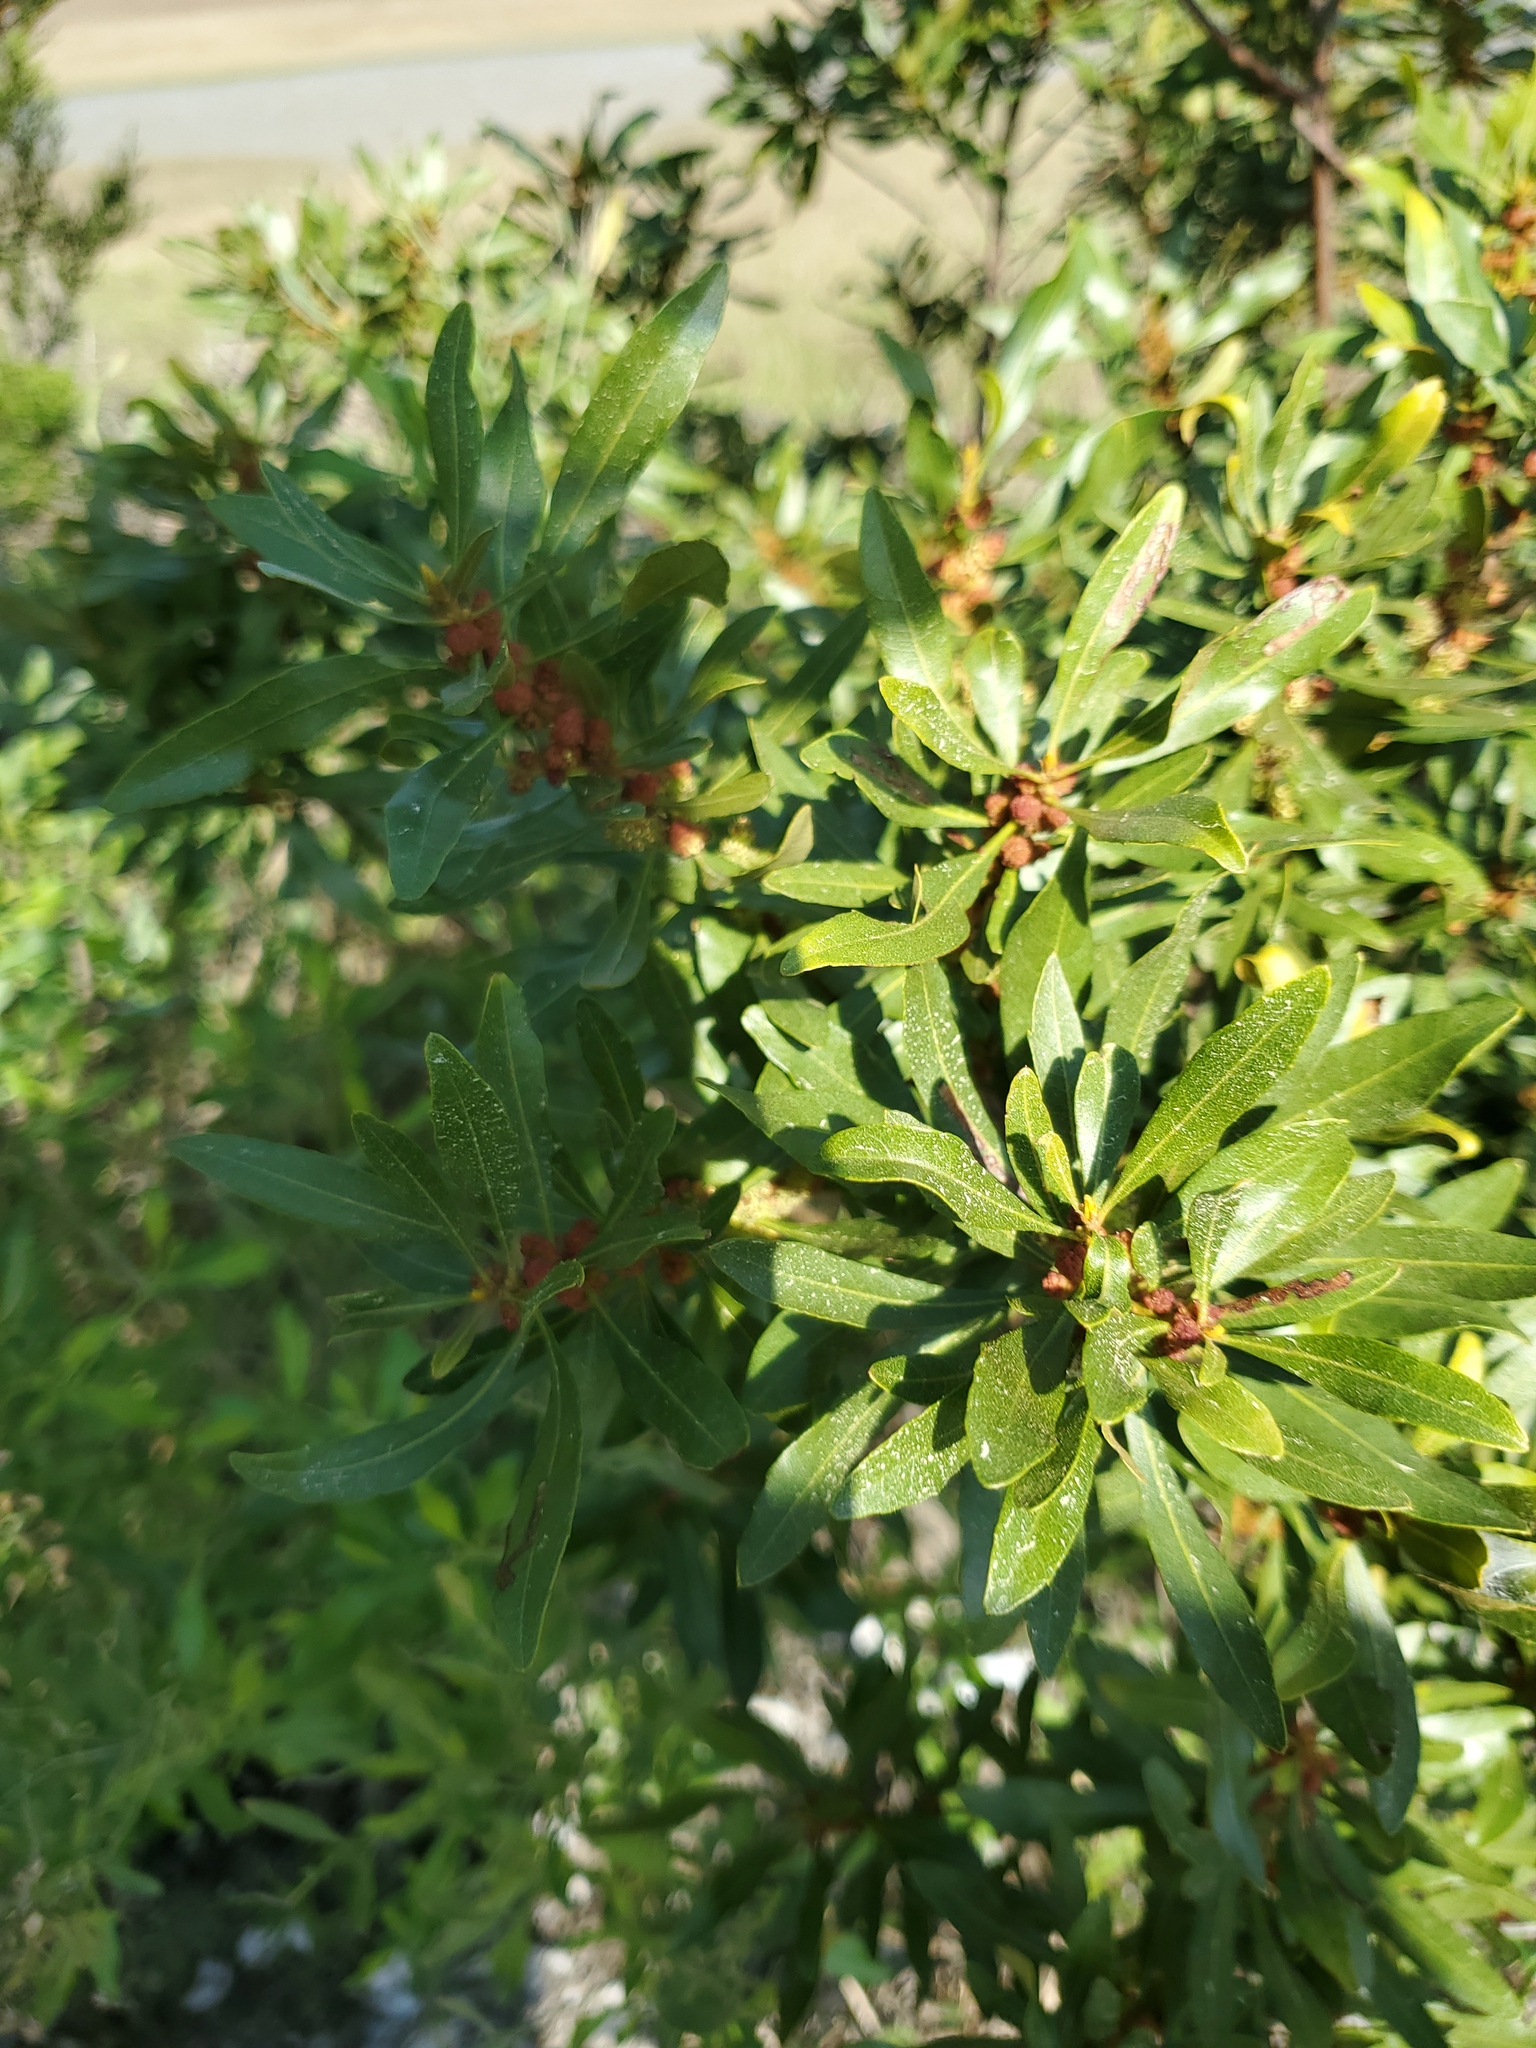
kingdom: Plantae
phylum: Tracheophyta
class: Magnoliopsida
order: Fagales
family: Myricaceae
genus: Morella
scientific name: Morella cerifera
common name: Wax myrtle
